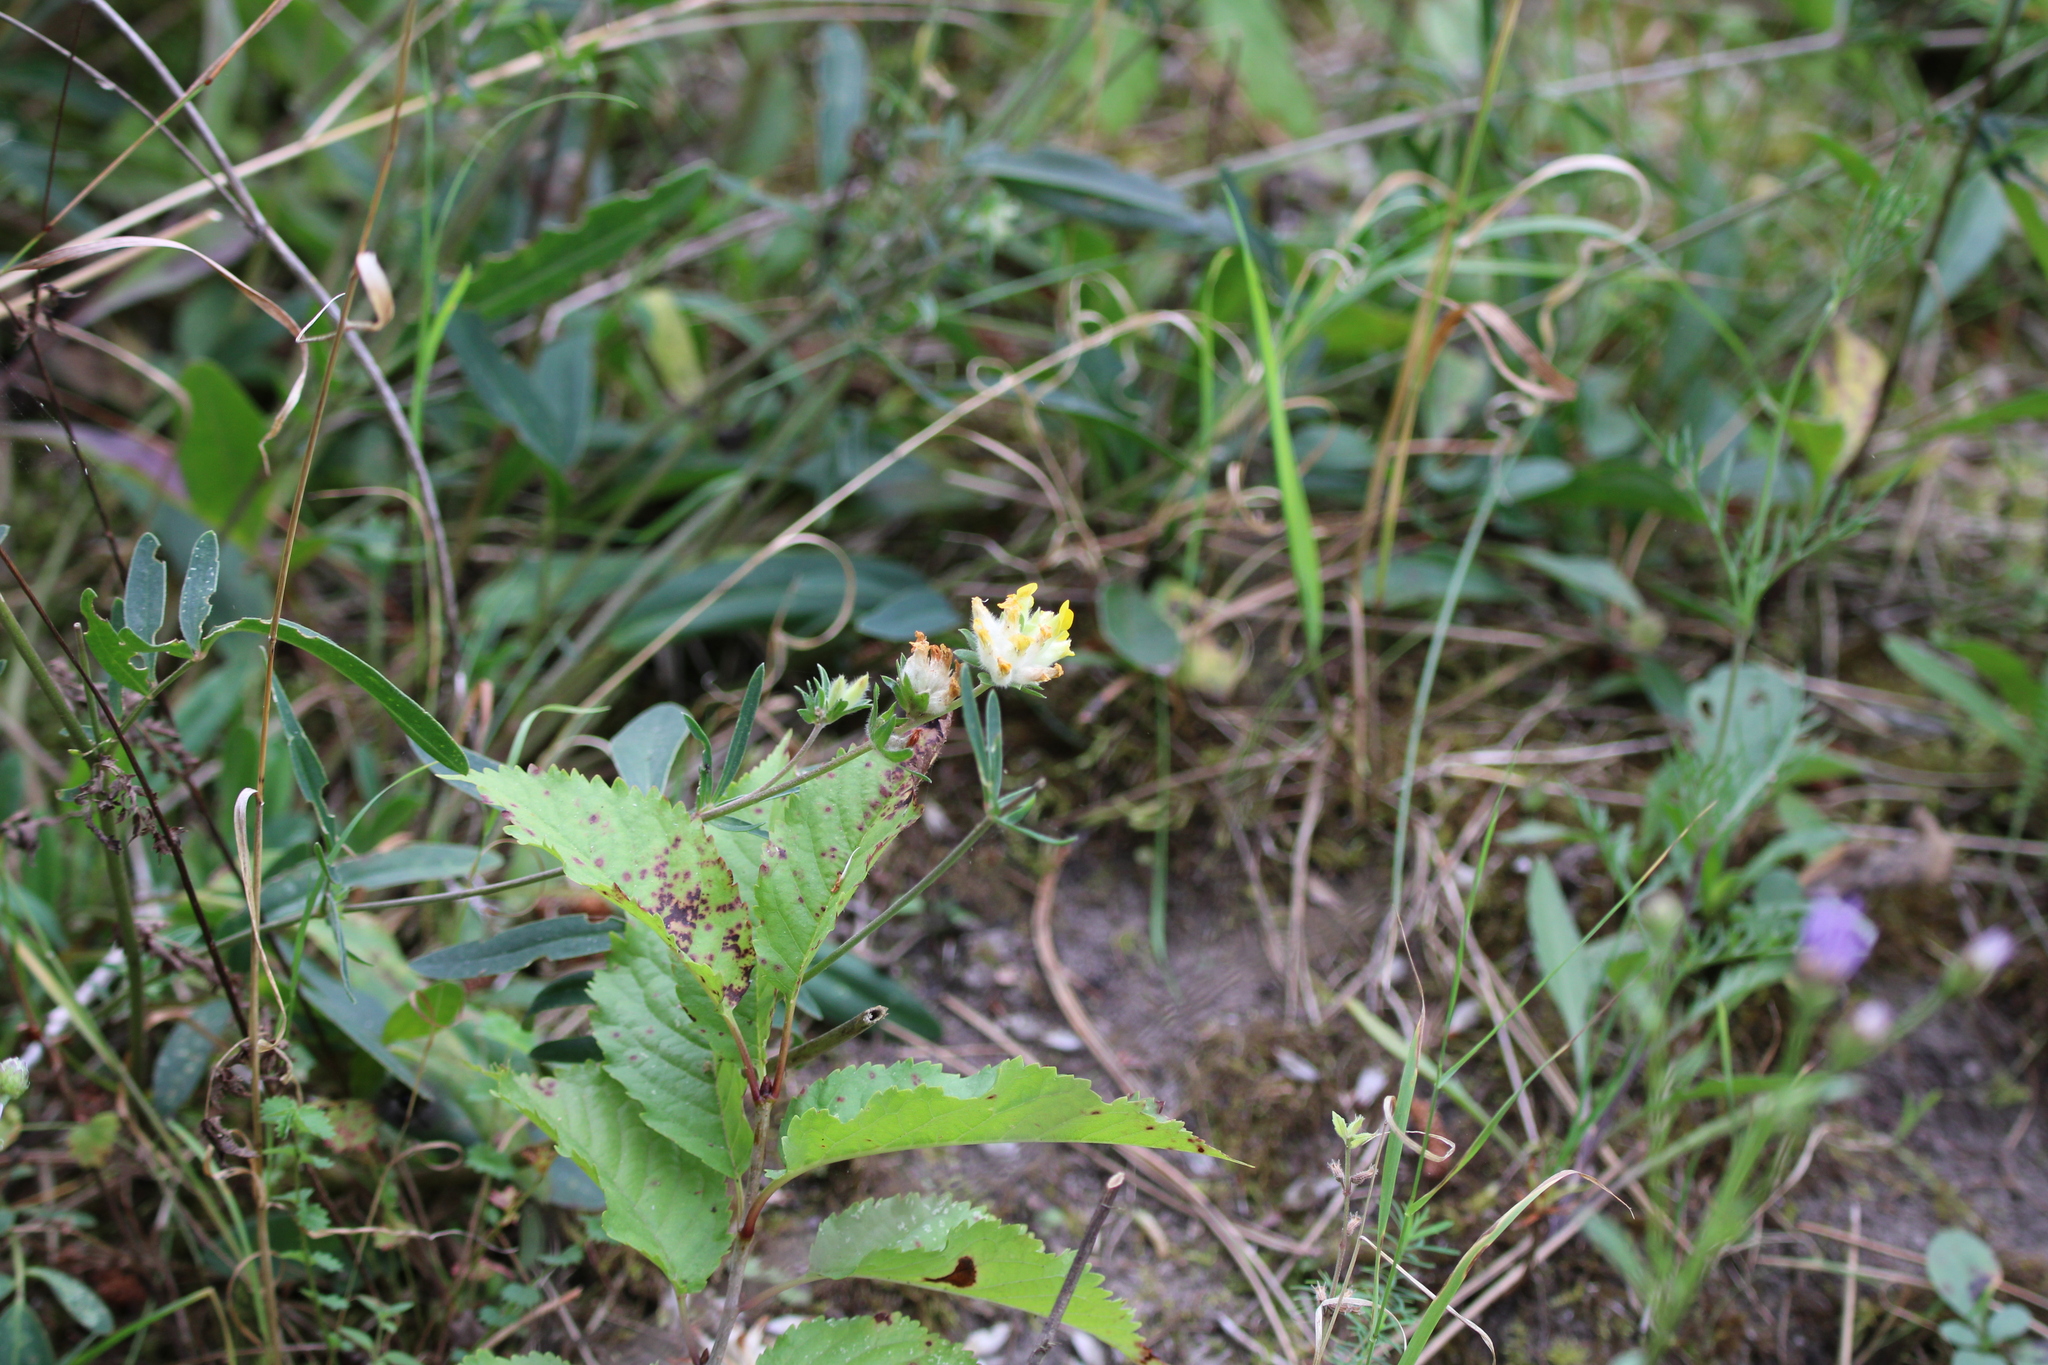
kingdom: Plantae
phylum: Tracheophyta
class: Magnoliopsida
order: Fabales
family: Fabaceae
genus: Anthyllis
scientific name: Anthyllis vulneraria
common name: Kidney vetch
